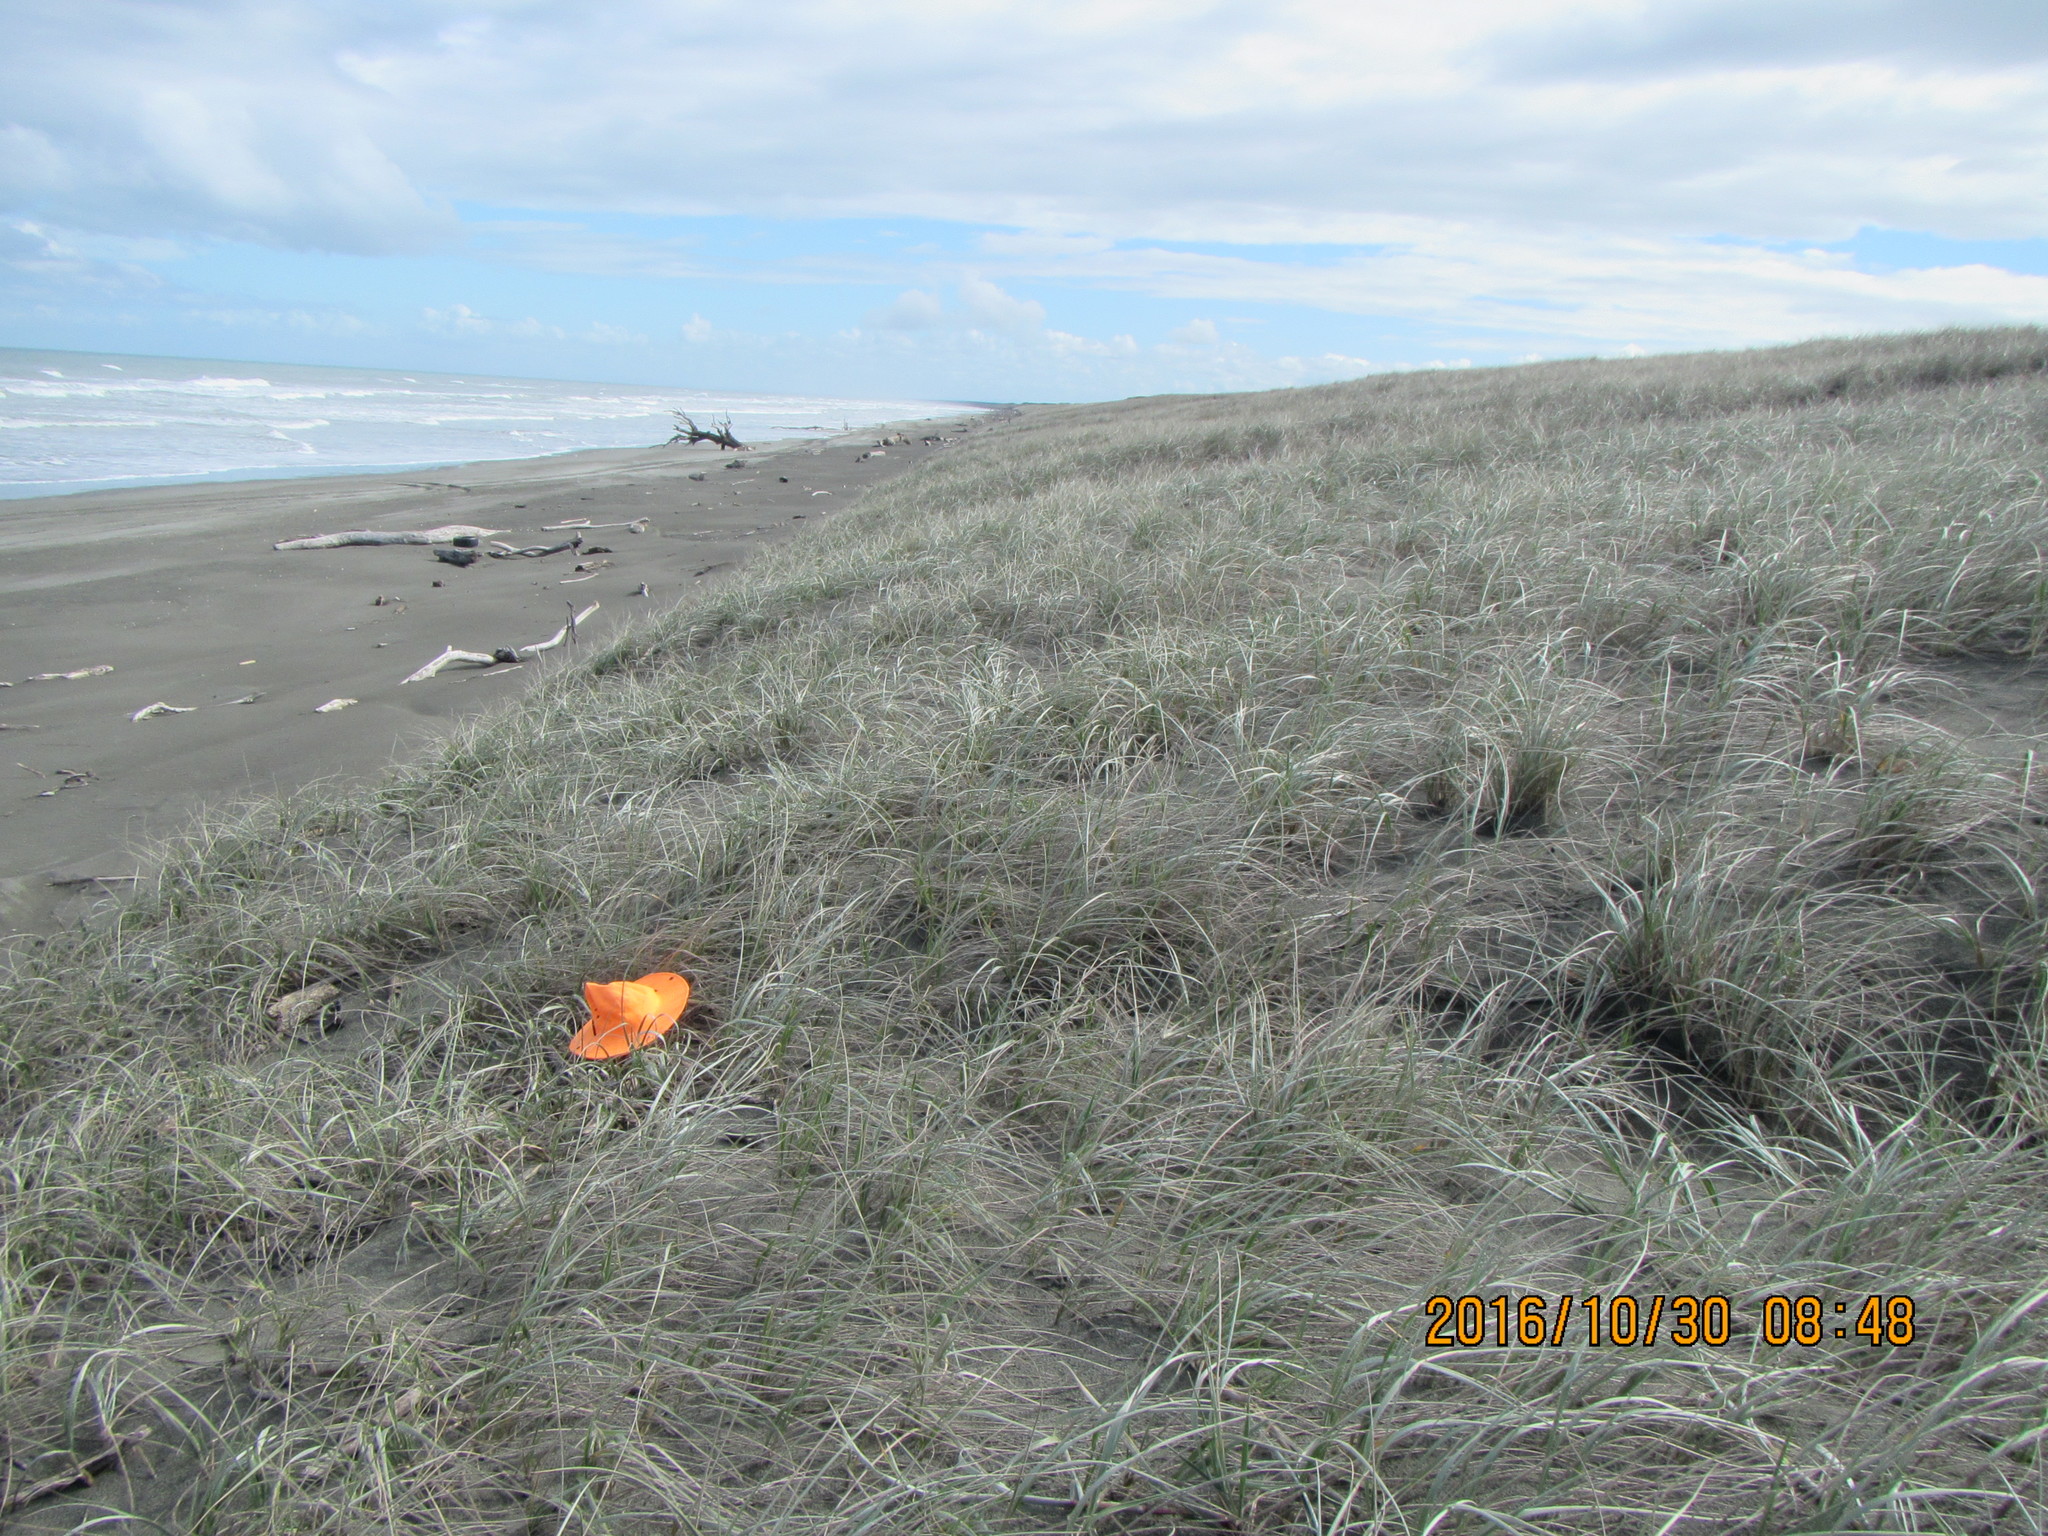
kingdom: Animalia
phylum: Arthropoda
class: Insecta
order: Blattodea
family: Blattidae
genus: Maoriblatta
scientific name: Maoriblatta novaeseelandiae
